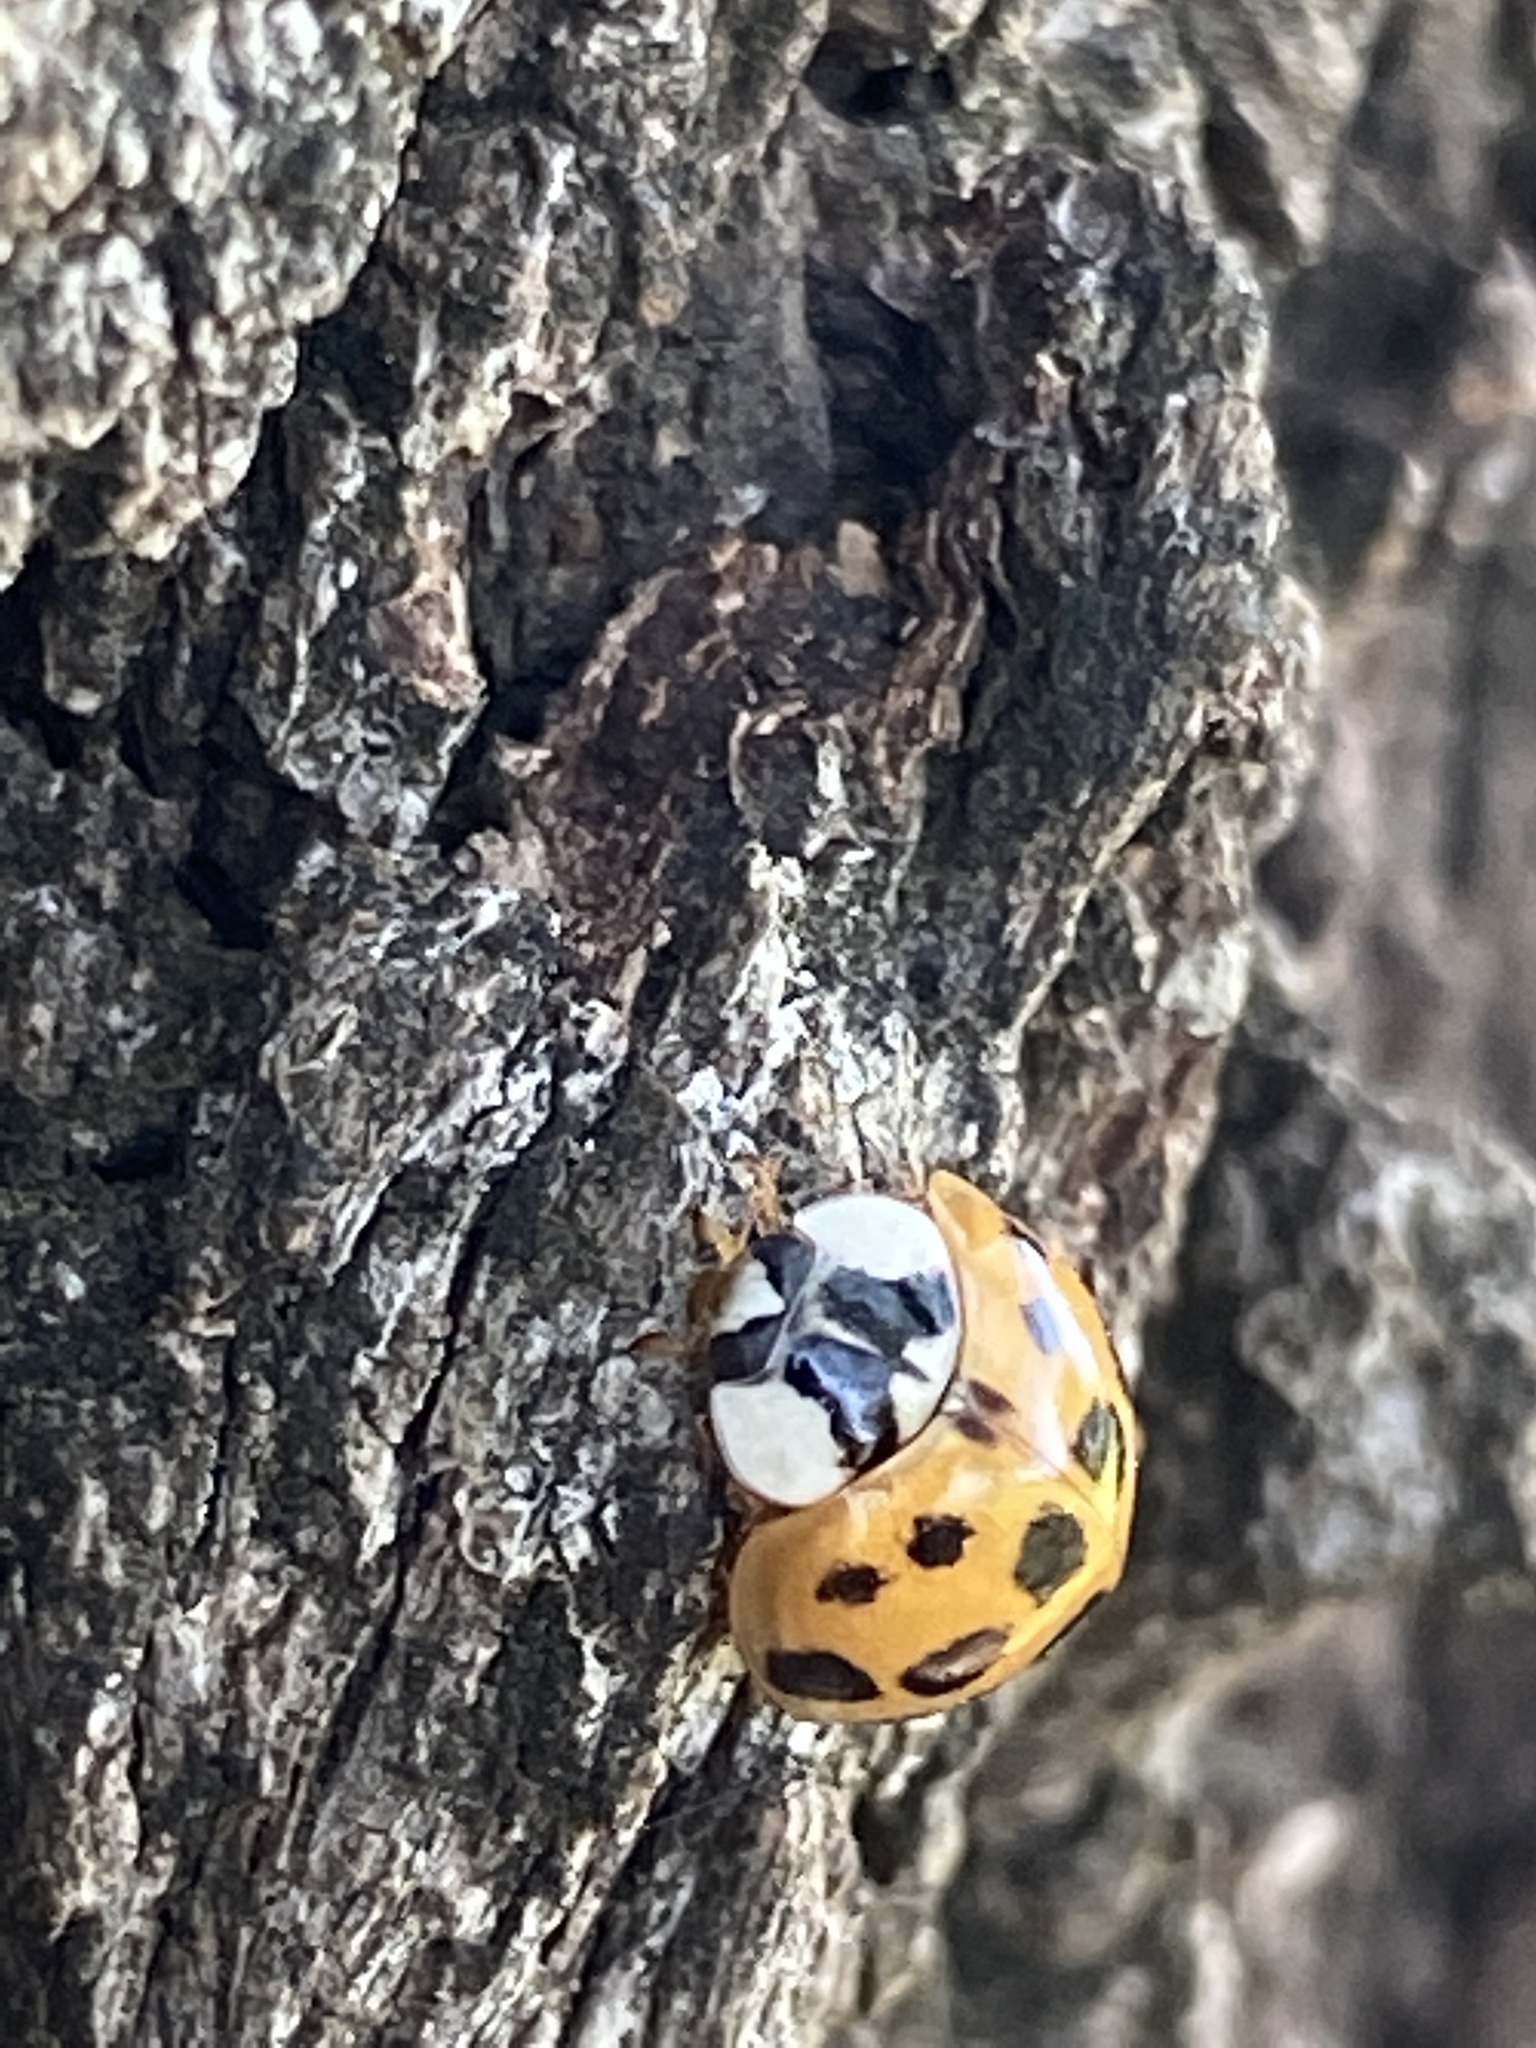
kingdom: Animalia
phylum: Arthropoda
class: Insecta
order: Coleoptera
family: Coccinellidae
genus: Harmonia
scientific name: Harmonia axyridis
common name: Harlequin ladybird
